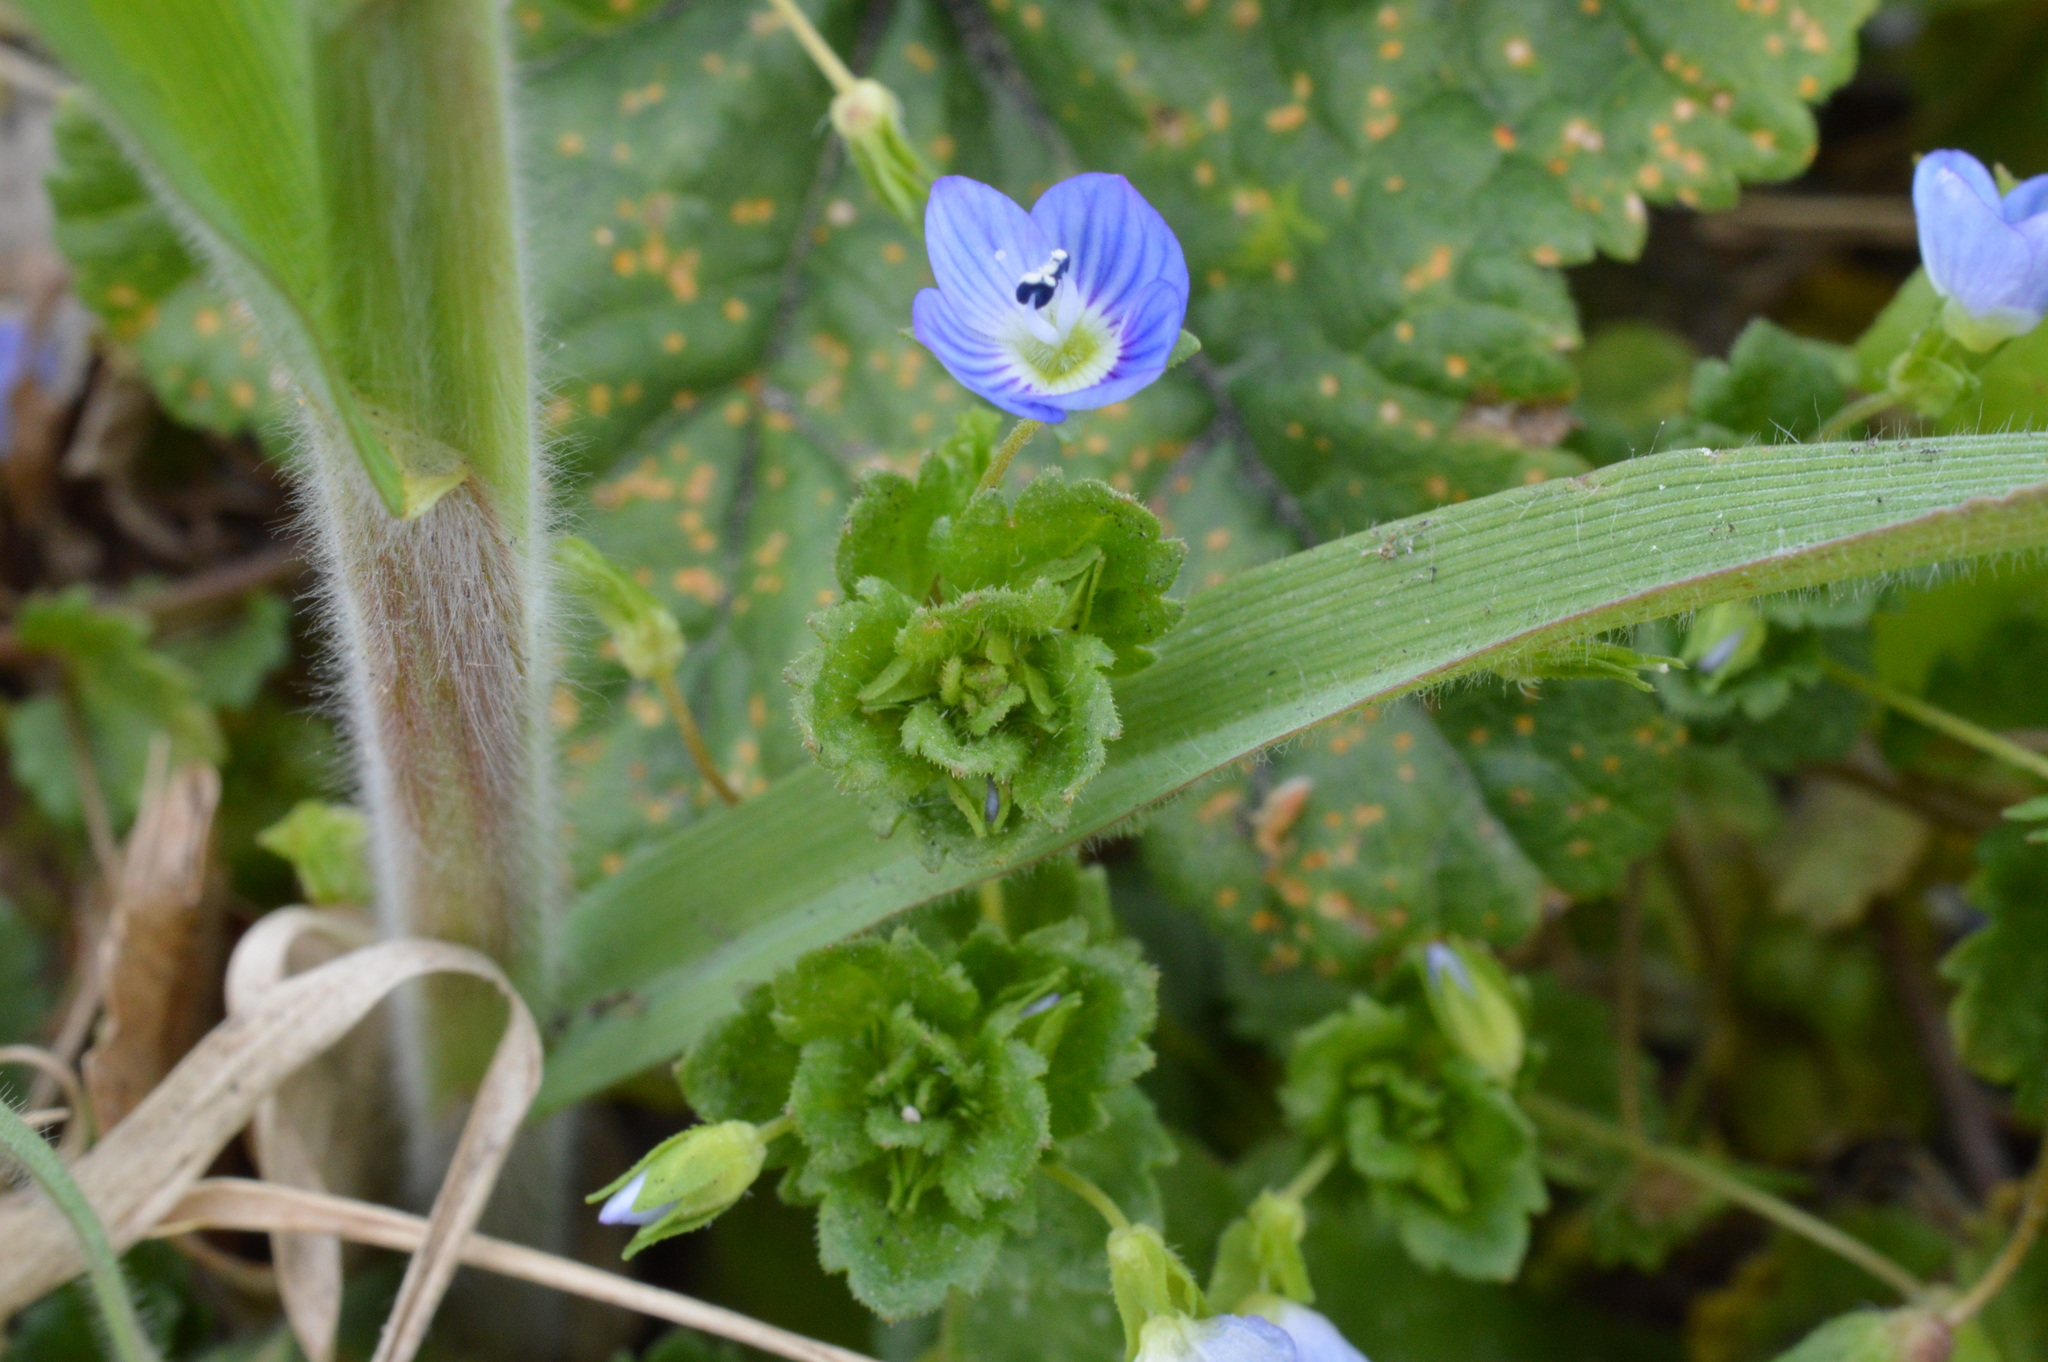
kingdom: Plantae
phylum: Tracheophyta
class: Magnoliopsida
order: Lamiales
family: Plantaginaceae
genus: Veronica
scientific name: Veronica persica
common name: Common field-speedwell
